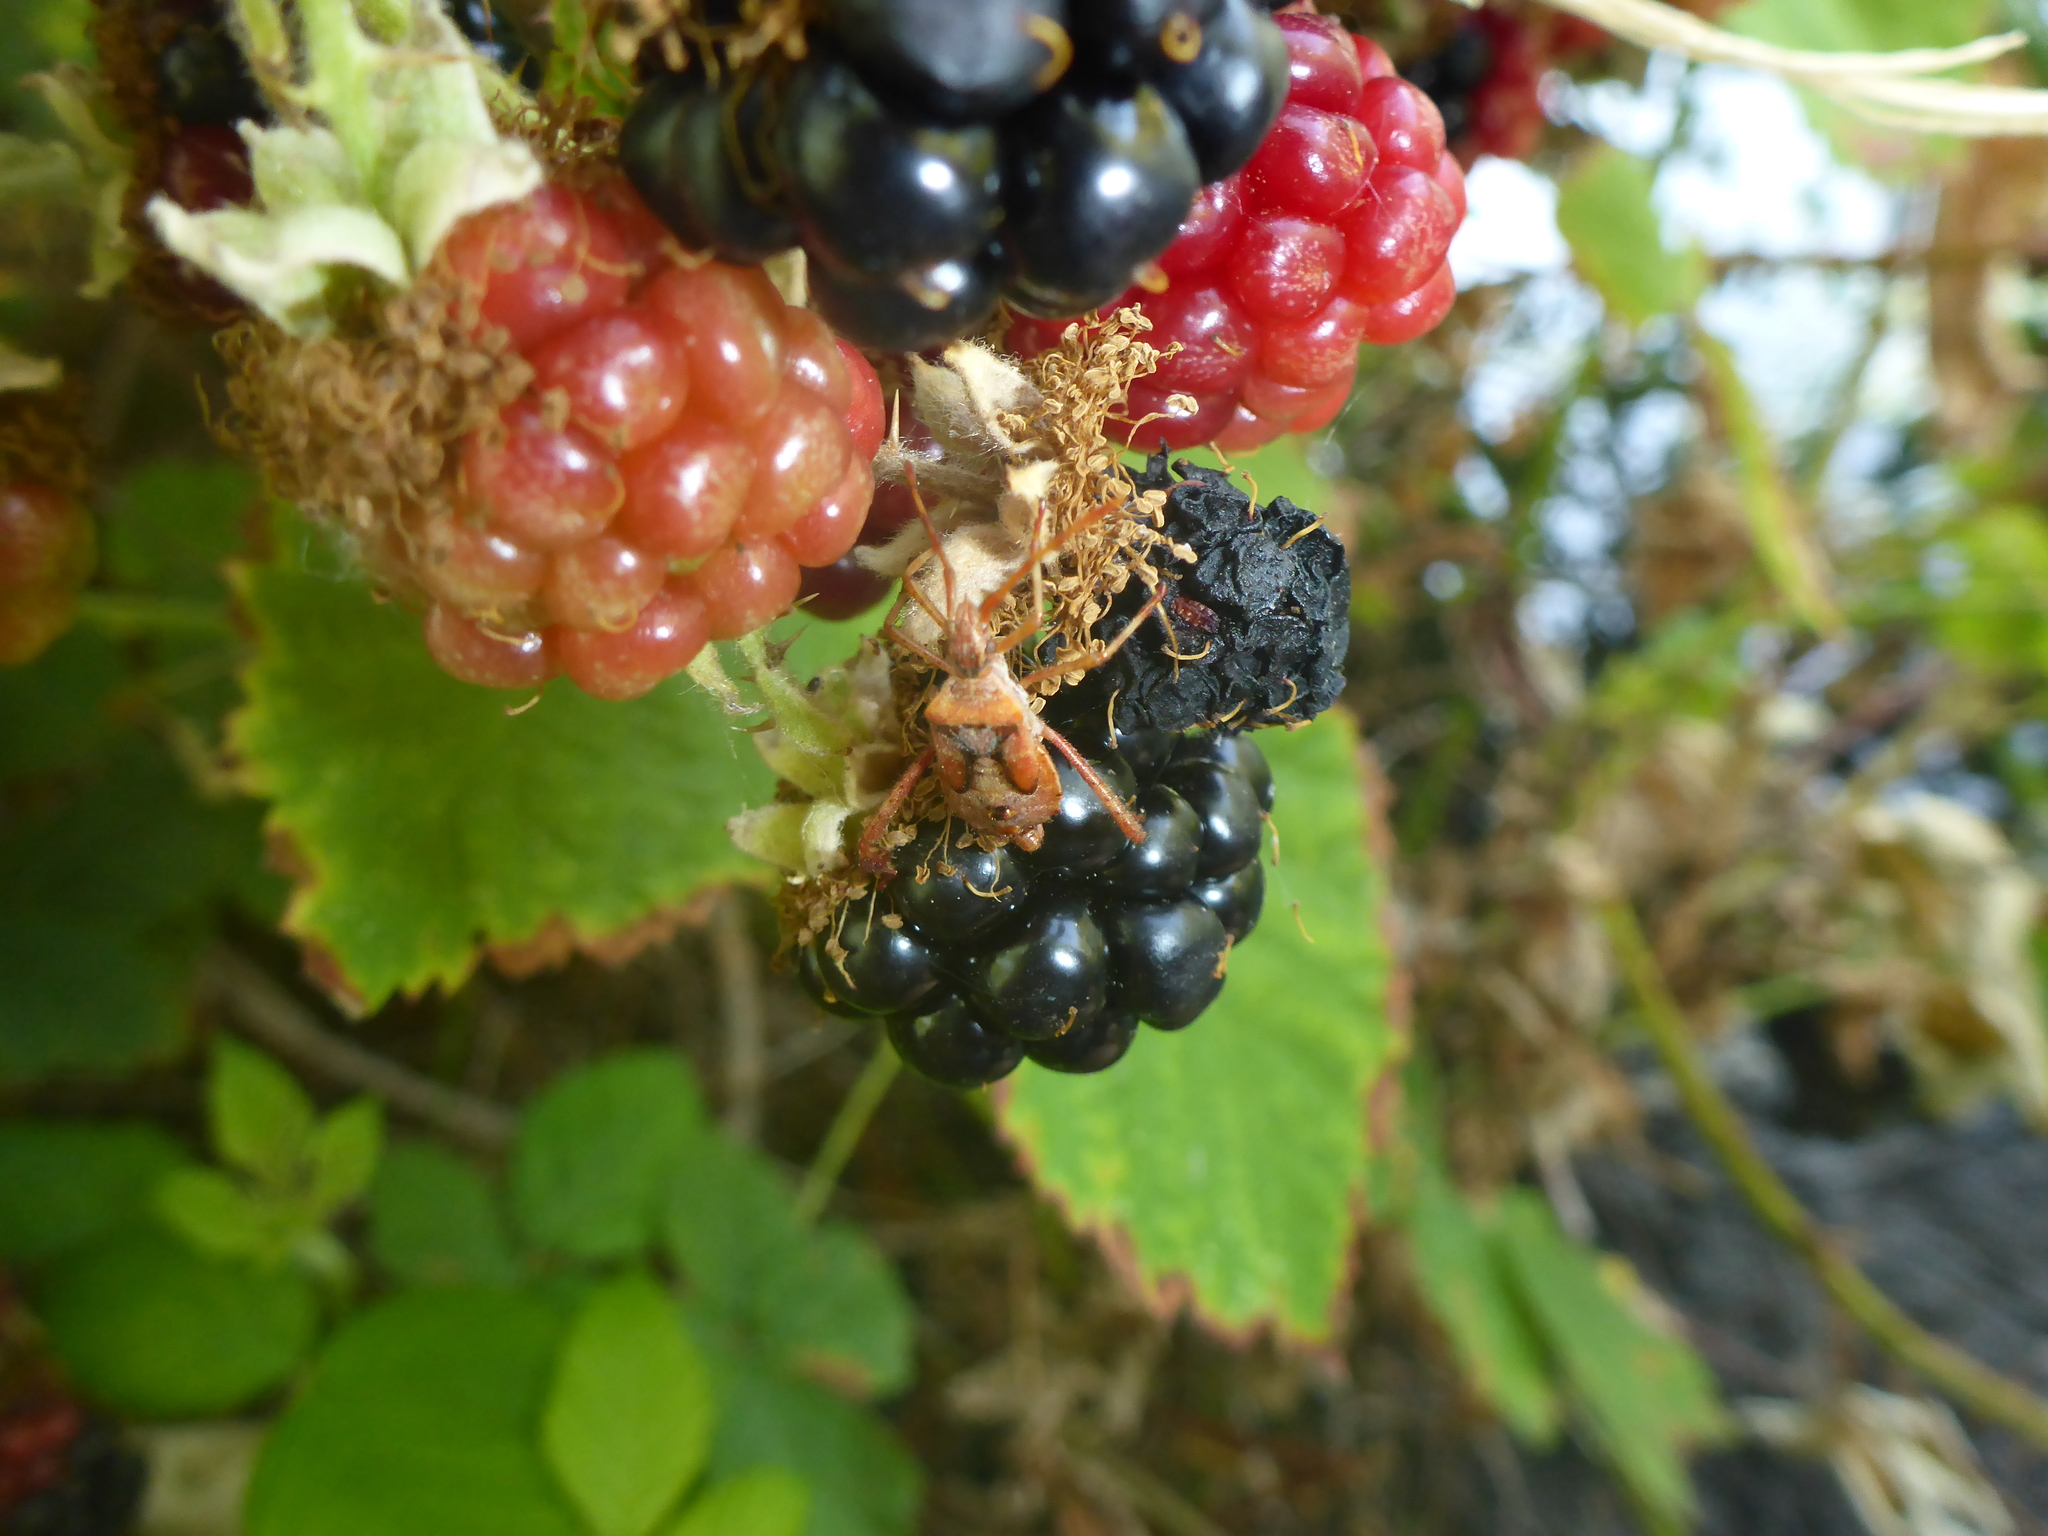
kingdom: Plantae
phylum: Tracheophyta
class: Magnoliopsida
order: Rosales
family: Rosaceae
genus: Rubus
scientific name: Rubus armeniacus
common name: Himalayan blackberry
